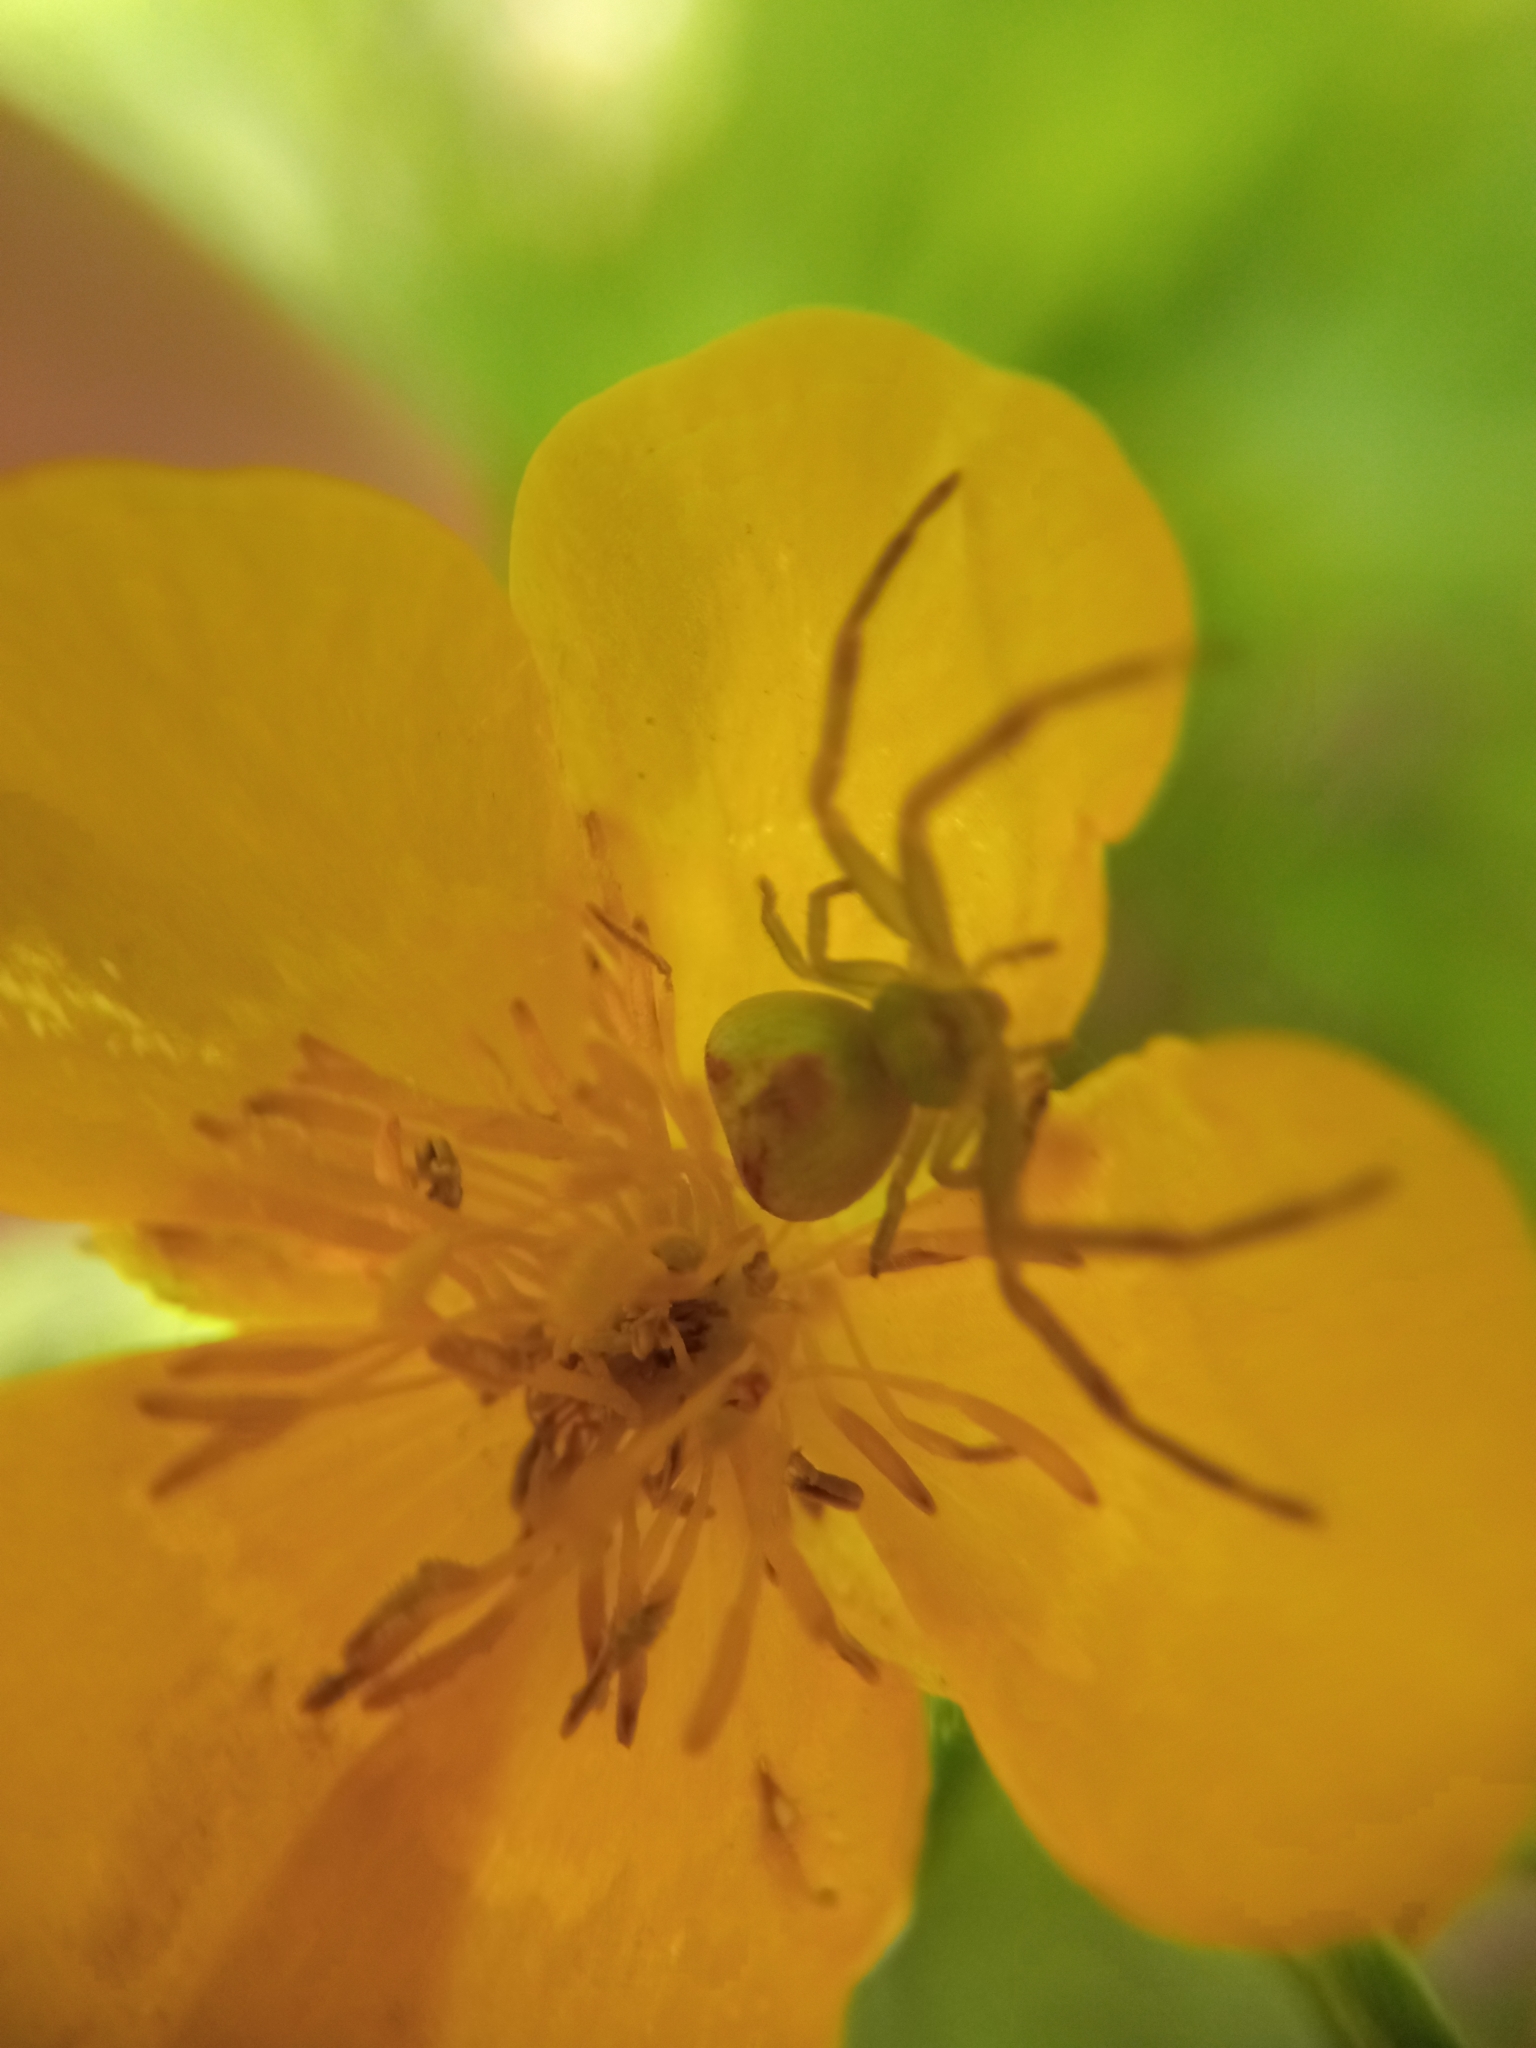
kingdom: Animalia
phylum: Arthropoda
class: Arachnida
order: Araneae
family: Thomisidae
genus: Ebrechtella
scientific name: Ebrechtella tricuspidata
